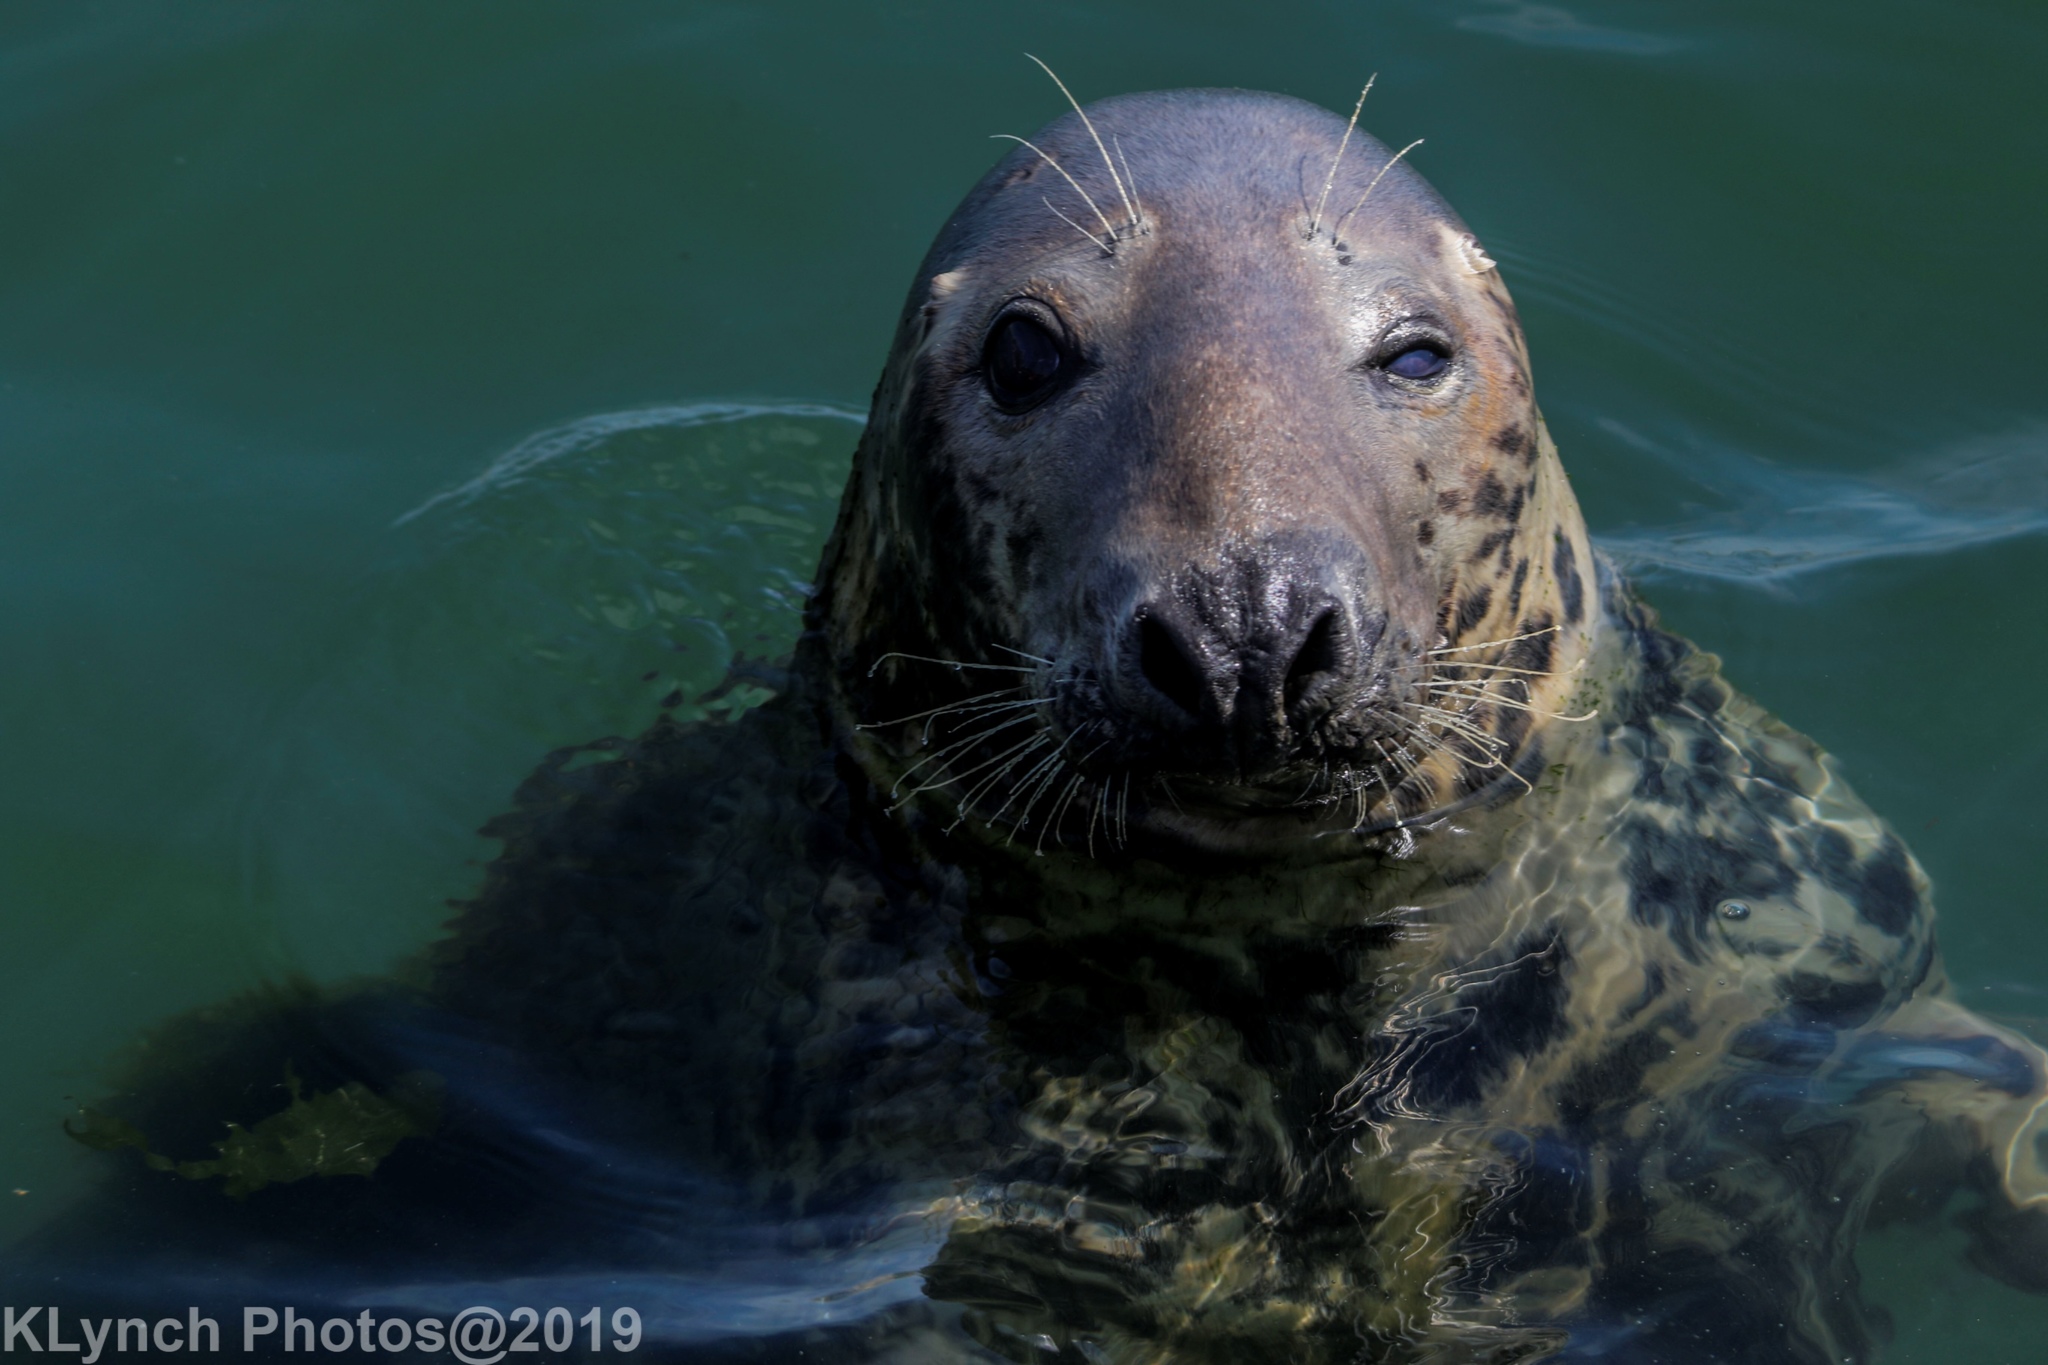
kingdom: Animalia
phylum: Chordata
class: Mammalia
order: Carnivora
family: Phocidae
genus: Halichoerus
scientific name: Halichoerus grypus
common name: Grey seal
